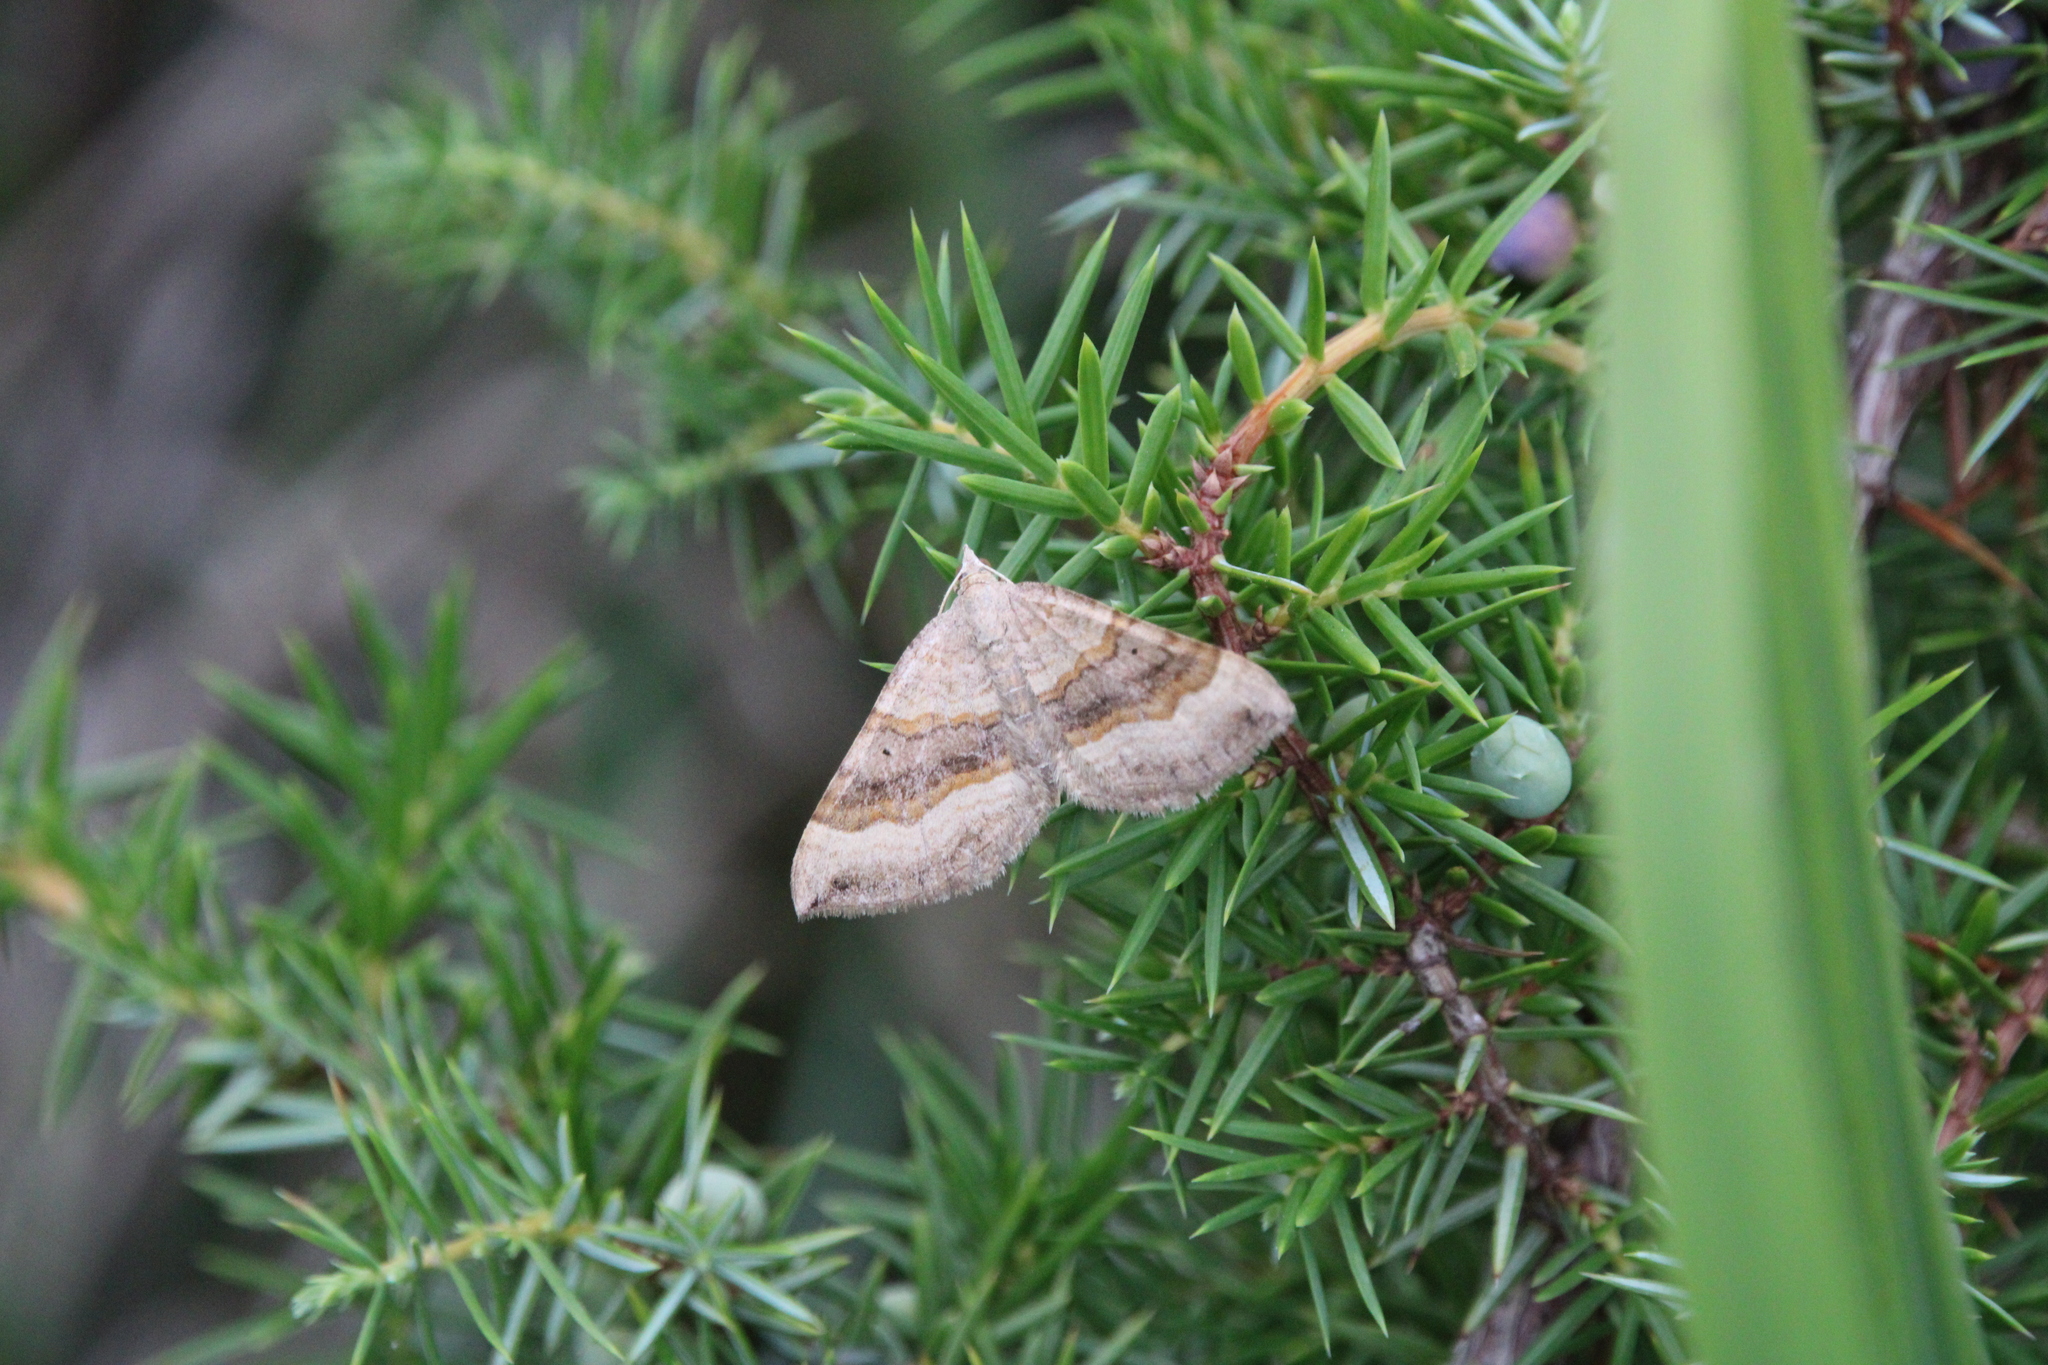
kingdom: Animalia
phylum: Arthropoda
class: Insecta
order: Lepidoptera
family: Geometridae
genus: Scotopteryx
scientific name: Scotopteryx chenopodiata
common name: Shaded broad-bar
